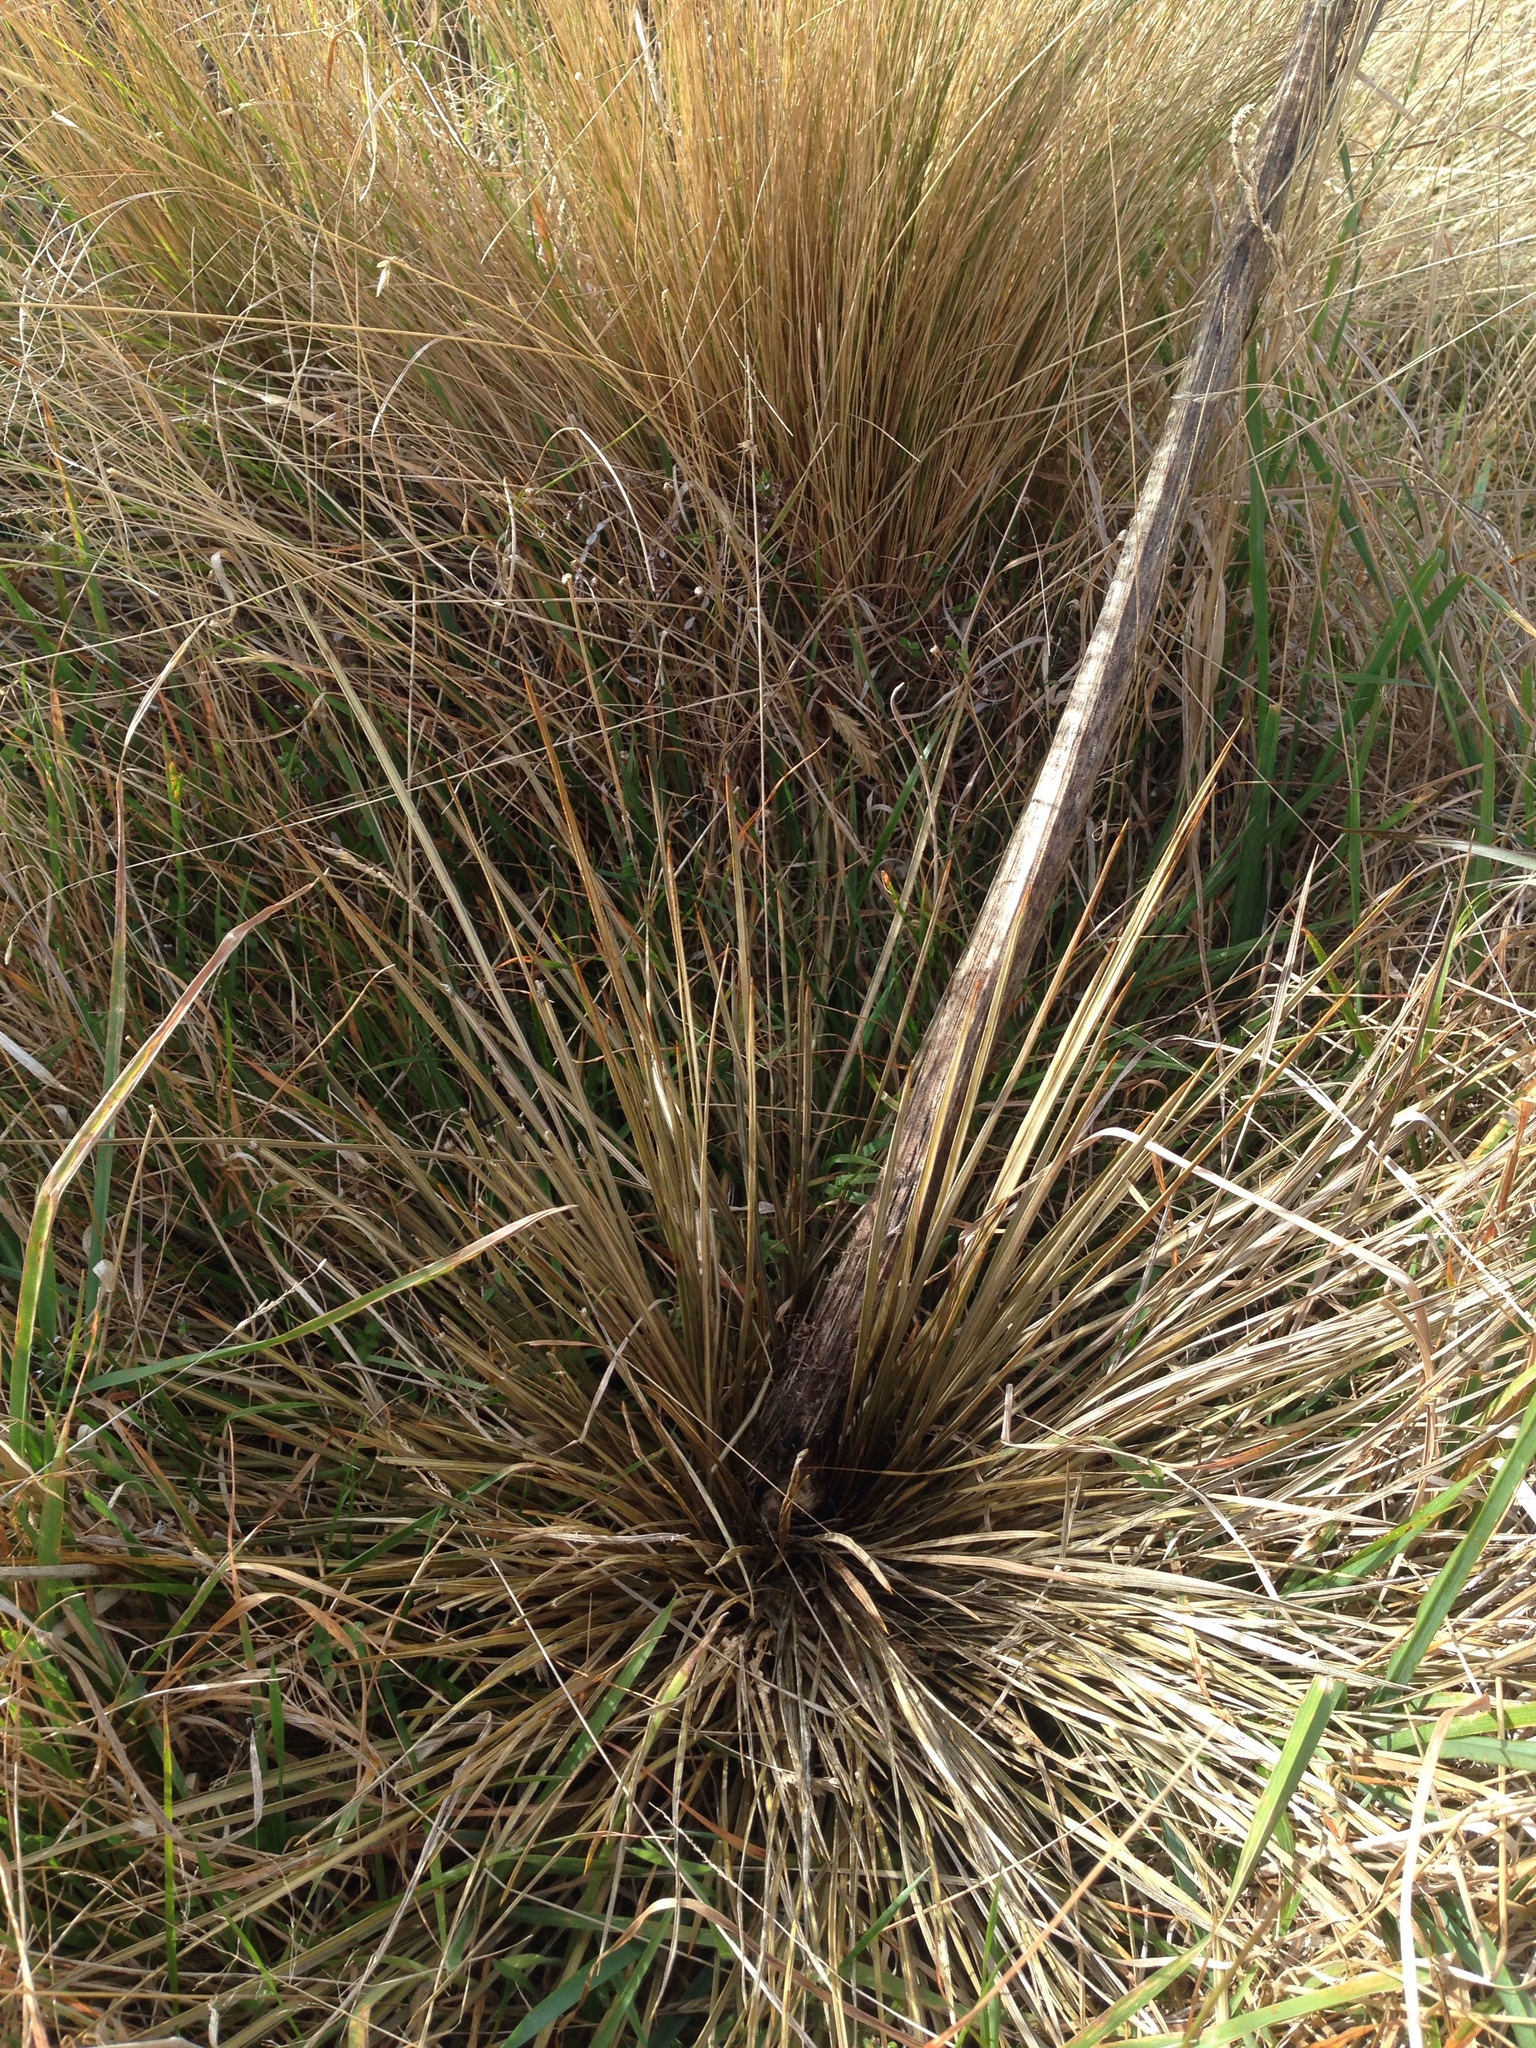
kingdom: Plantae
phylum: Tracheophyta
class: Magnoliopsida
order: Apiales
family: Apiaceae
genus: Aciphylla
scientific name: Aciphylla subflabellata
